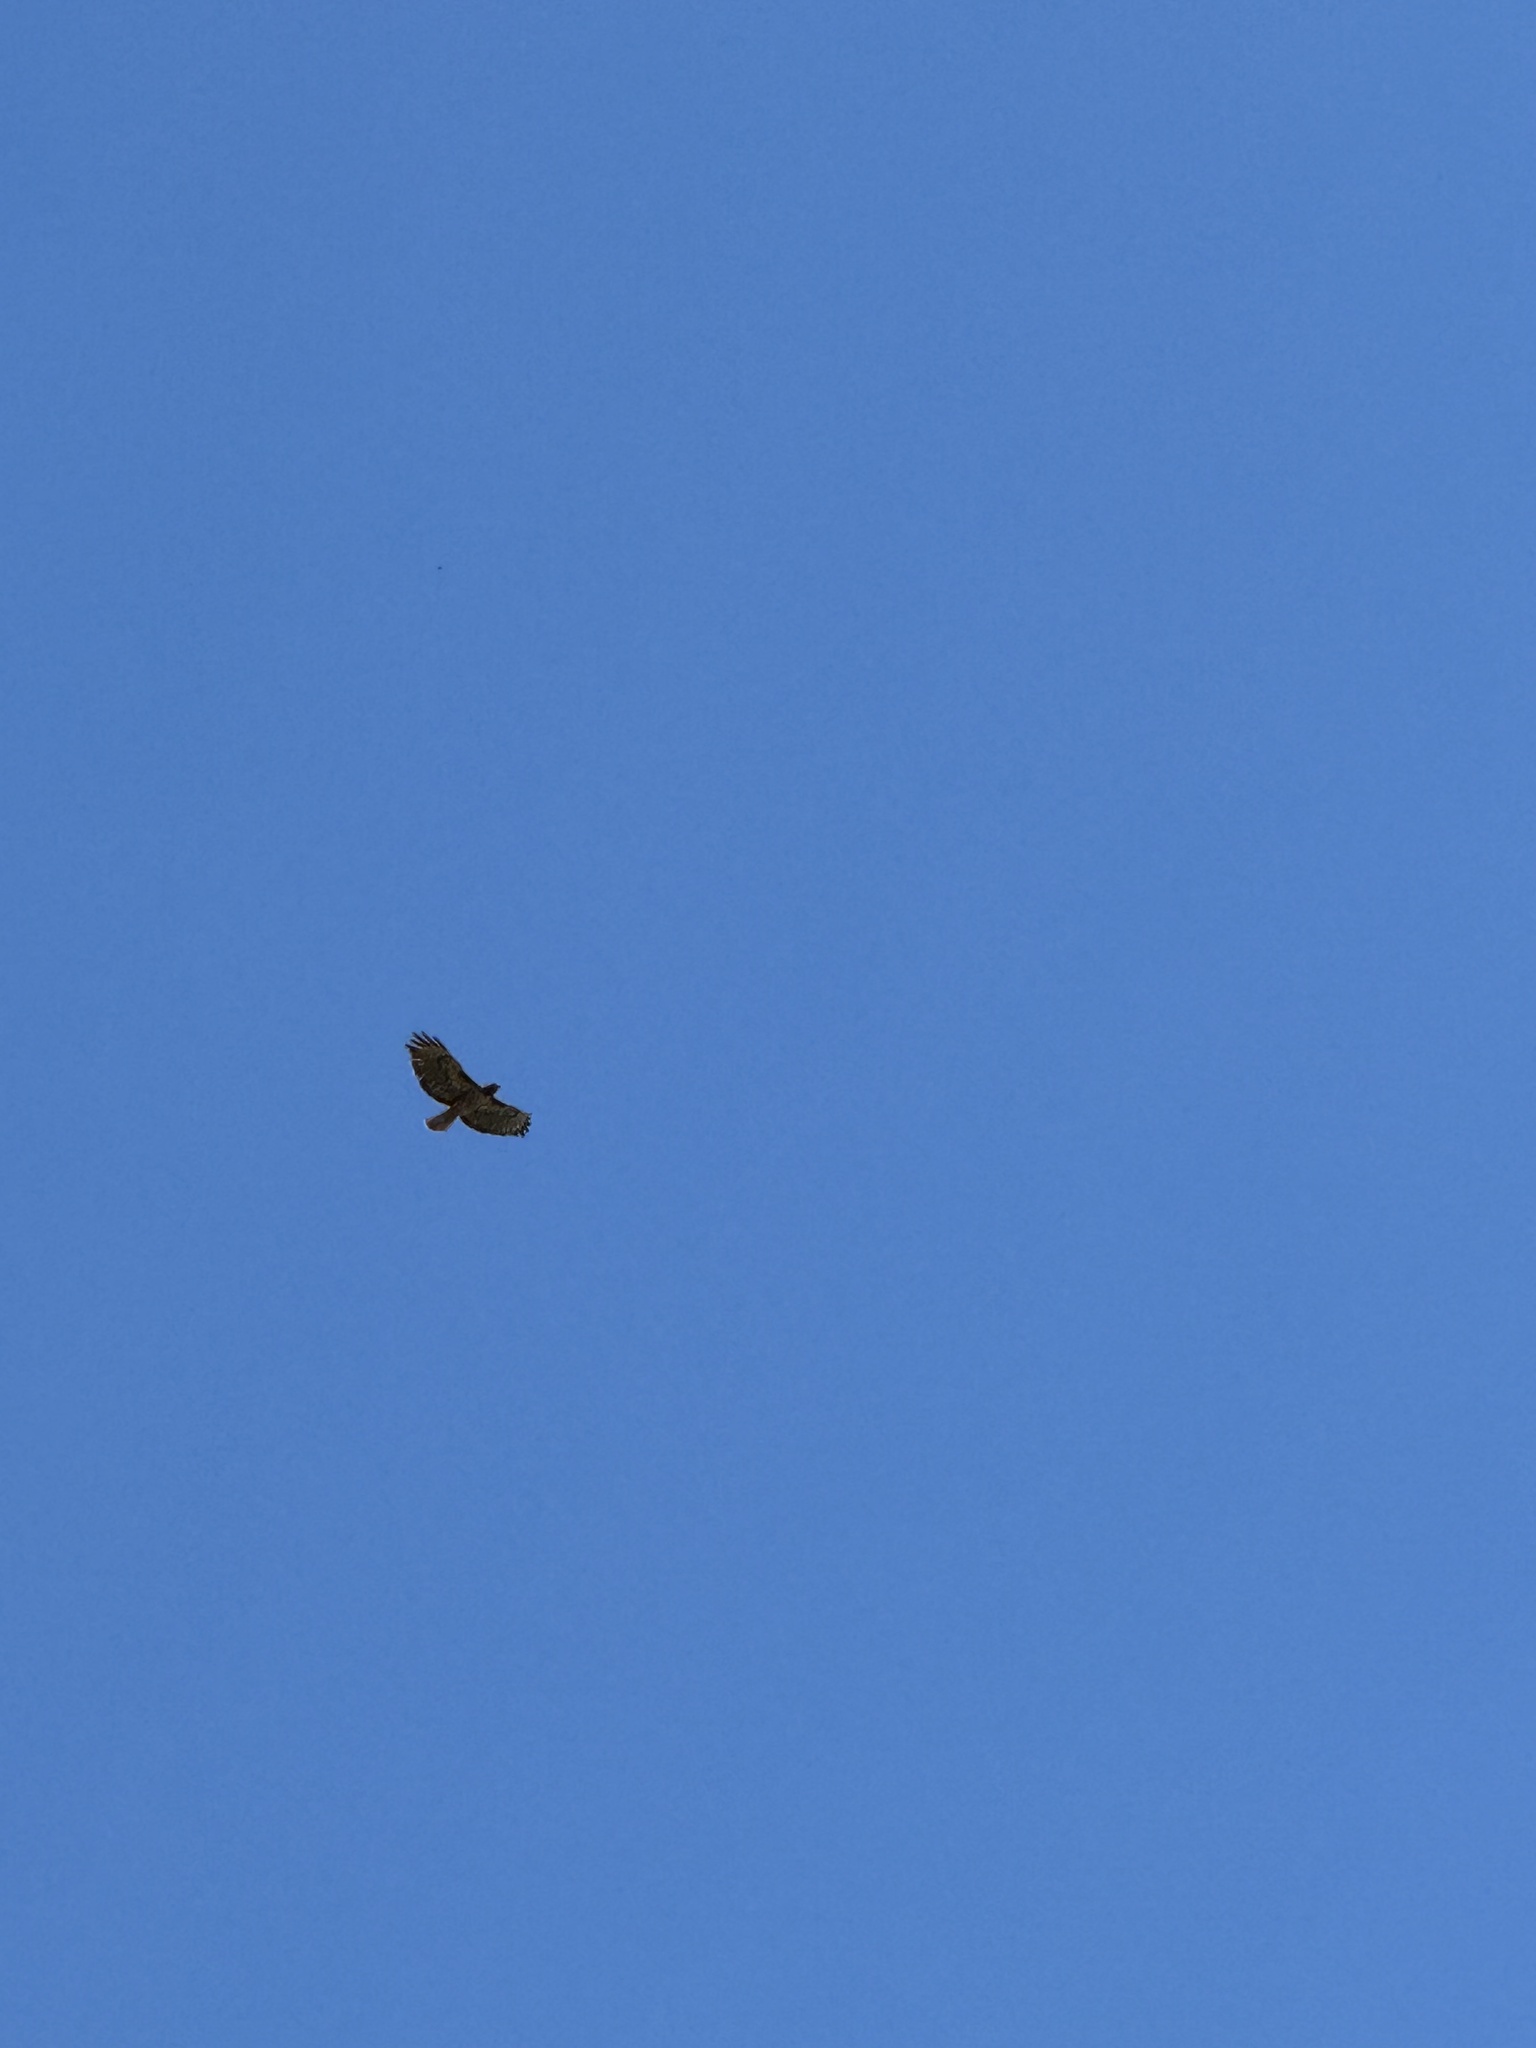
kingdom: Animalia
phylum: Chordata
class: Aves
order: Accipitriformes
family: Accipitridae
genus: Buteo
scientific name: Buteo jamaicensis
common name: Red-tailed hawk
